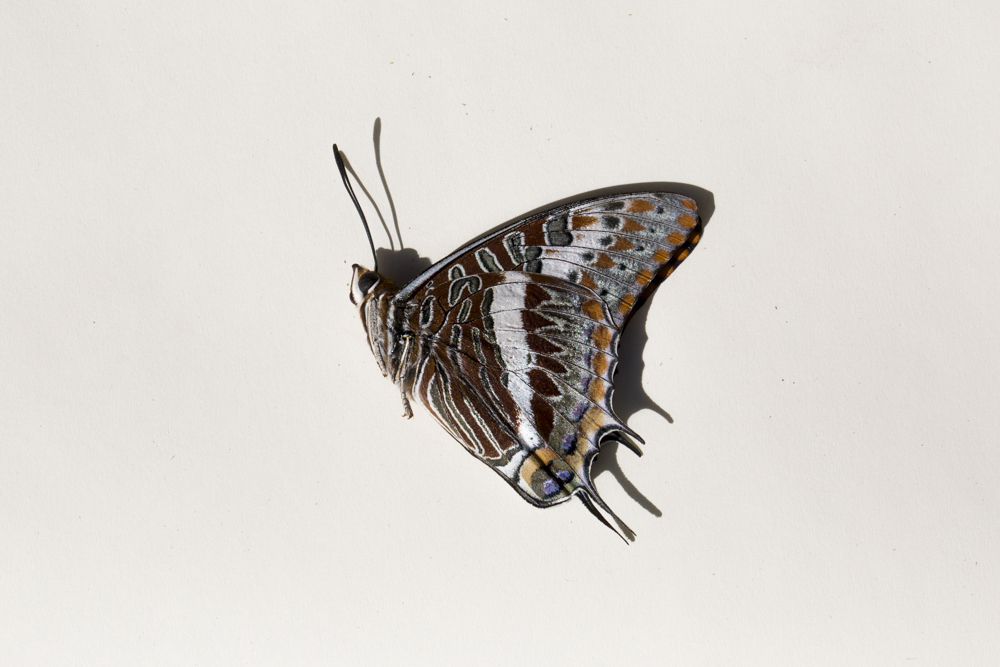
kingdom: Animalia
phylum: Arthropoda
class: Insecta
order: Lepidoptera
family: Nymphalidae
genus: Charaxes
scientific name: Charaxes jasius
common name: Two tailed pasha
